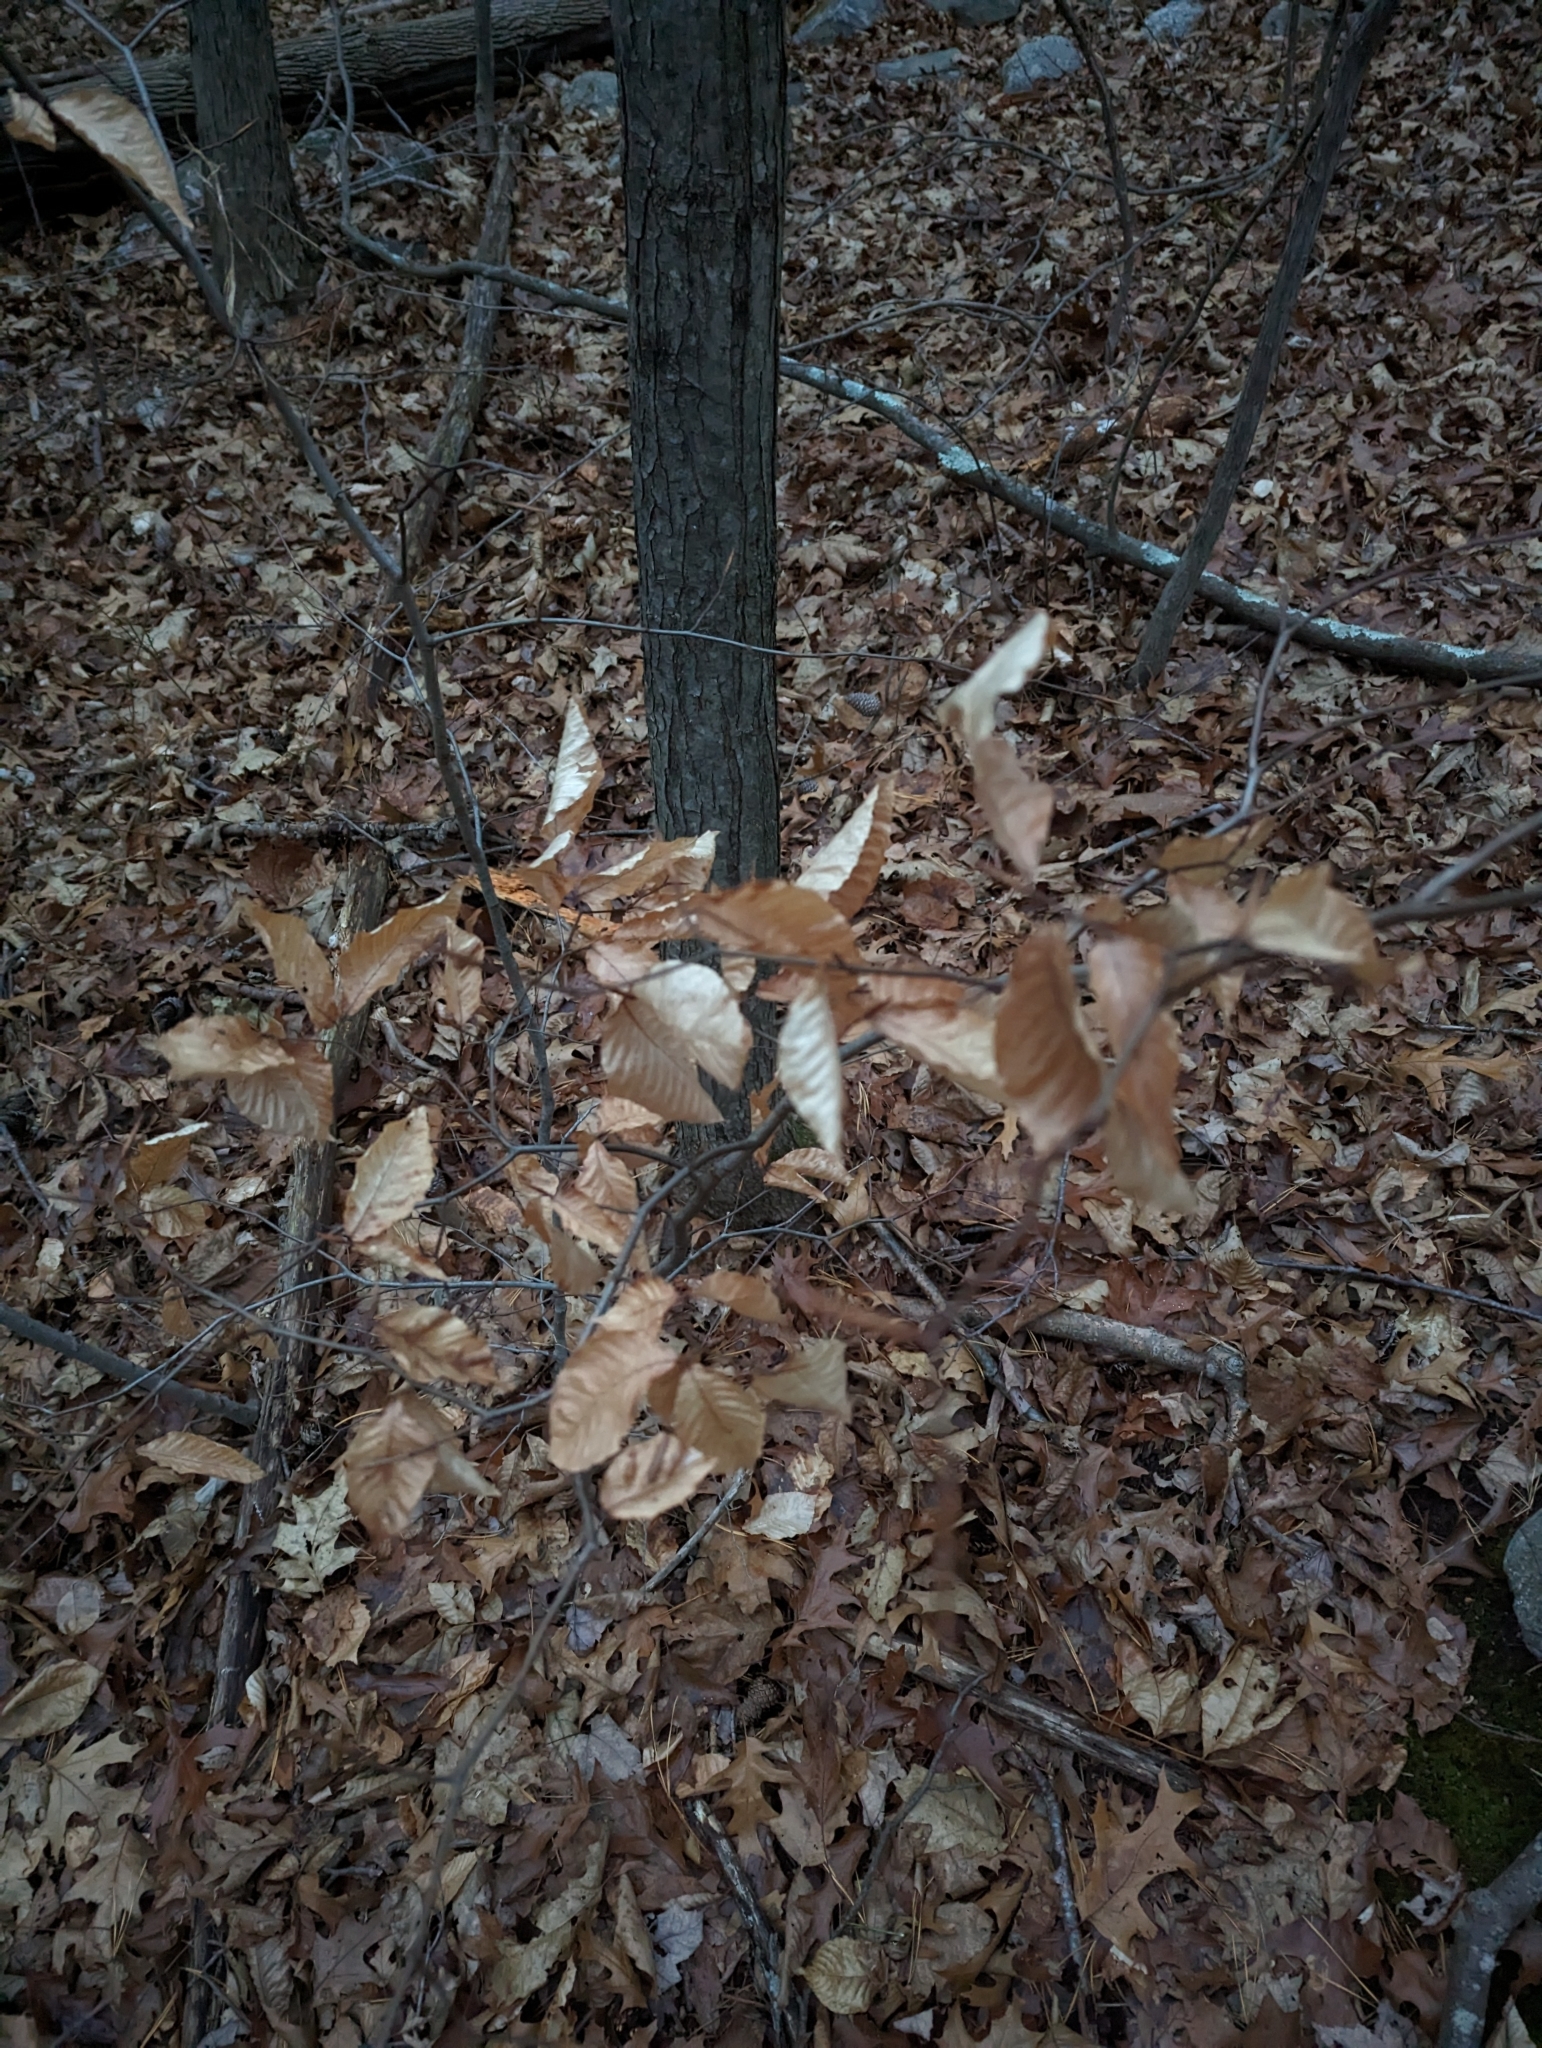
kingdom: Plantae
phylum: Tracheophyta
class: Magnoliopsida
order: Fagales
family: Fagaceae
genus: Fagus
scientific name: Fagus grandifolia
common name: American beech
